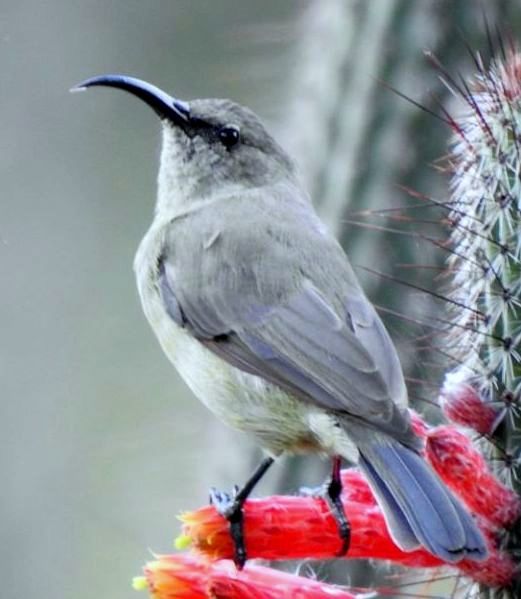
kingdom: Animalia
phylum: Chordata
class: Aves
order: Passeriformes
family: Nectariniidae
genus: Cinnyris
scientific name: Cinnyris afer
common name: Greater double-collared sunbird
